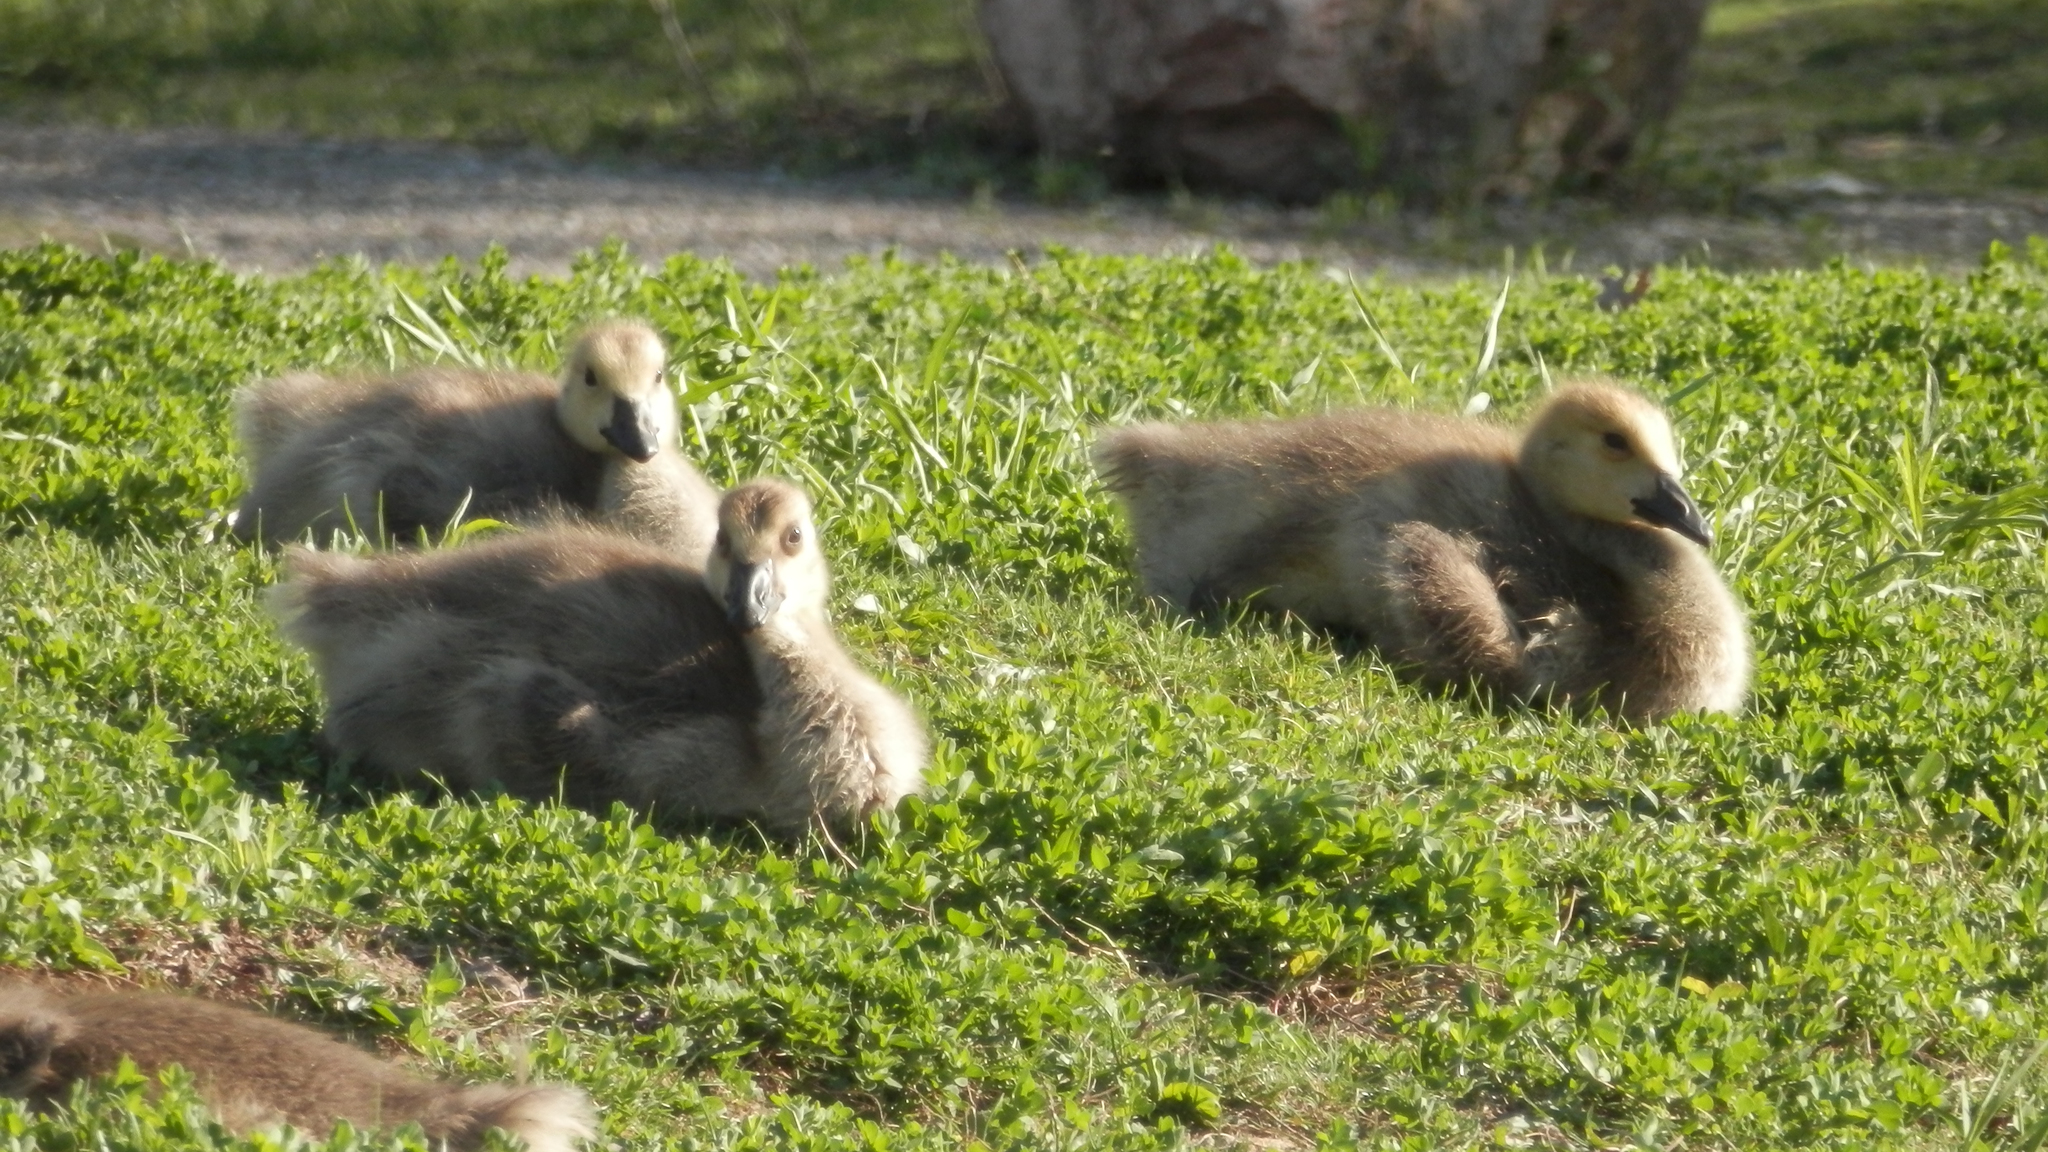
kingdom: Animalia
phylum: Chordata
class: Aves
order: Anseriformes
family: Anatidae
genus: Branta
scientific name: Branta canadensis
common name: Canada goose
